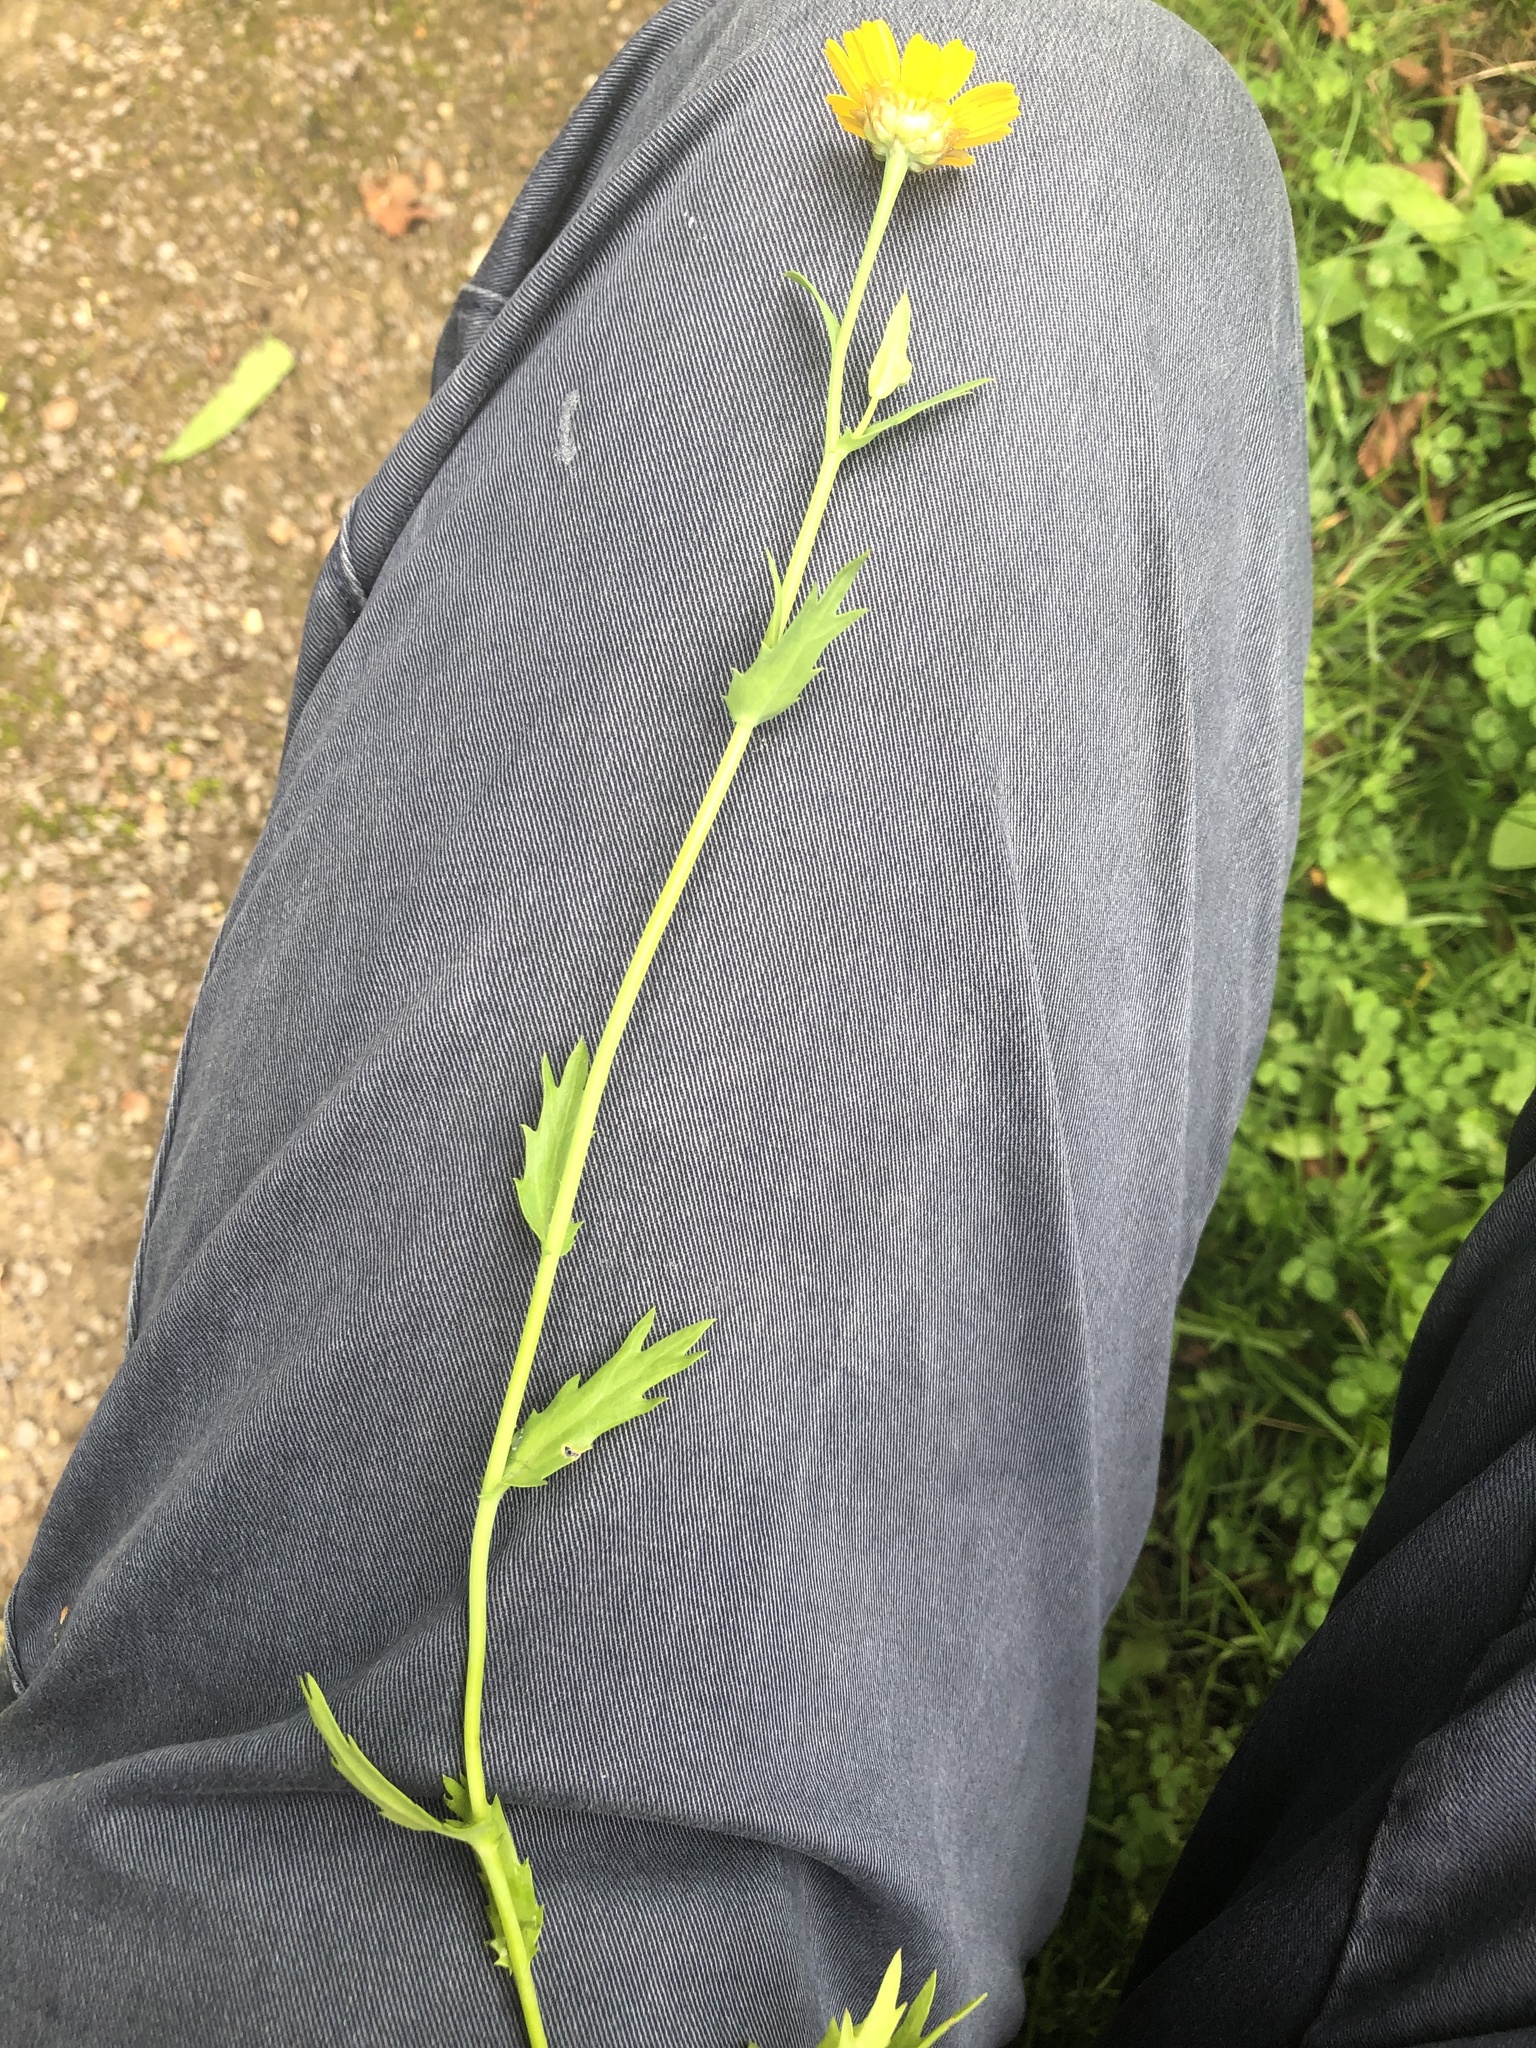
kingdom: Plantae
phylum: Tracheophyta
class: Magnoliopsida
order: Asterales
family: Asteraceae
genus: Glebionis
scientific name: Glebionis segetum
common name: Corndaisy
